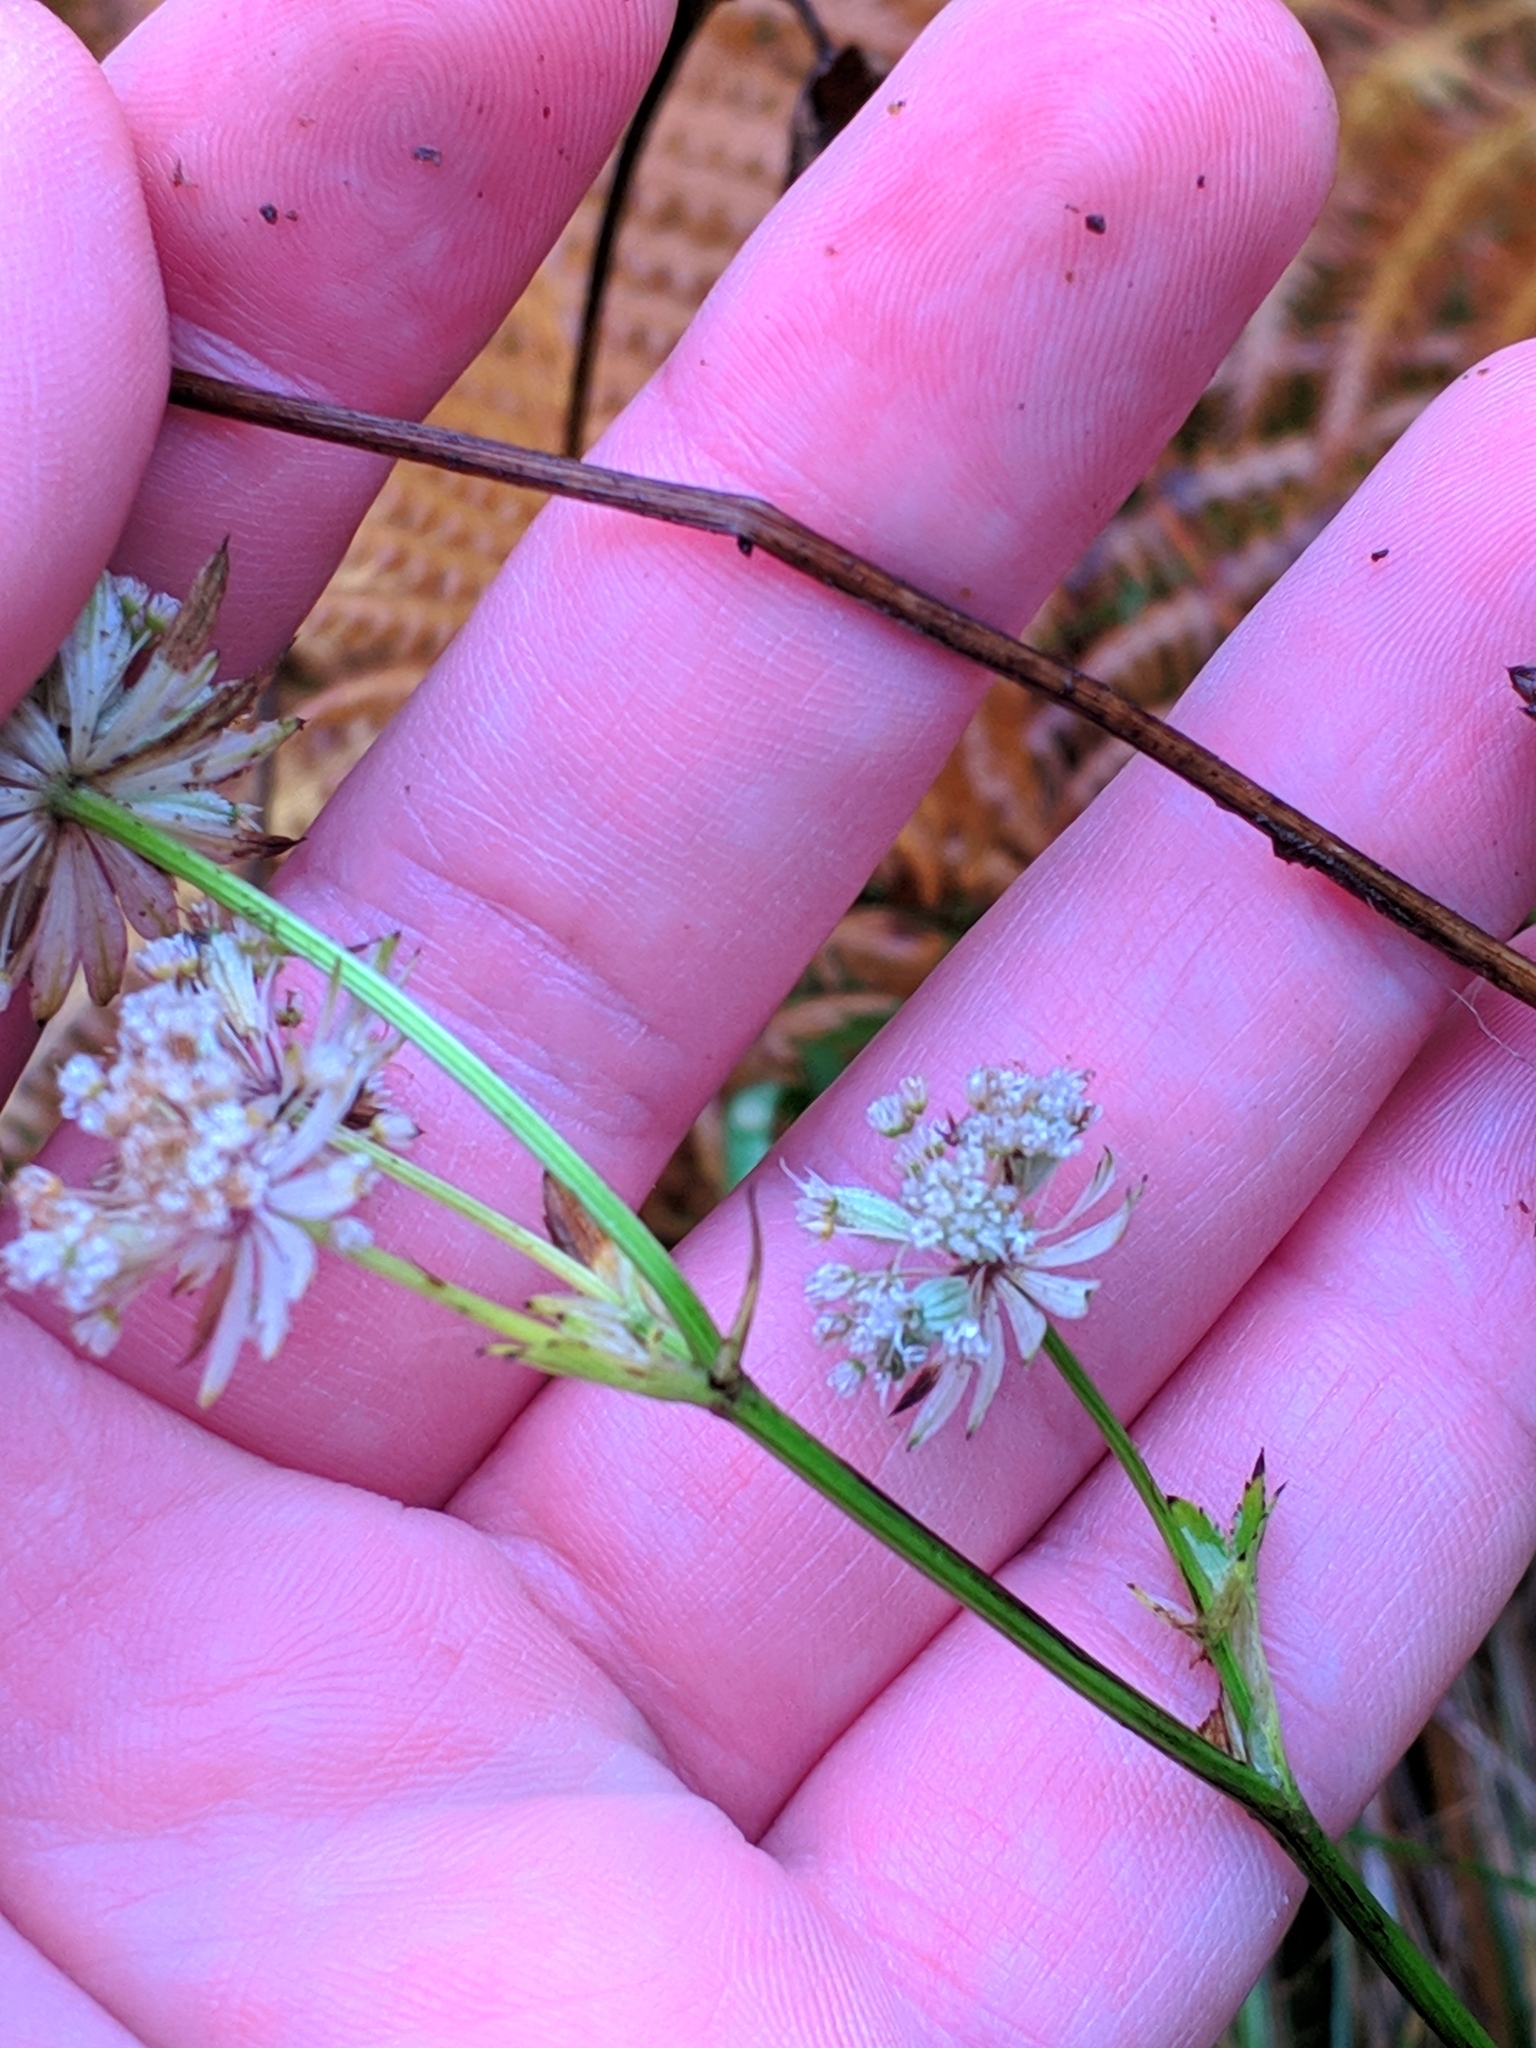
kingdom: Plantae
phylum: Tracheophyta
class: Magnoliopsida
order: Apiales
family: Apiaceae
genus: Astrantia
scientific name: Astrantia major
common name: Greater masterwort
